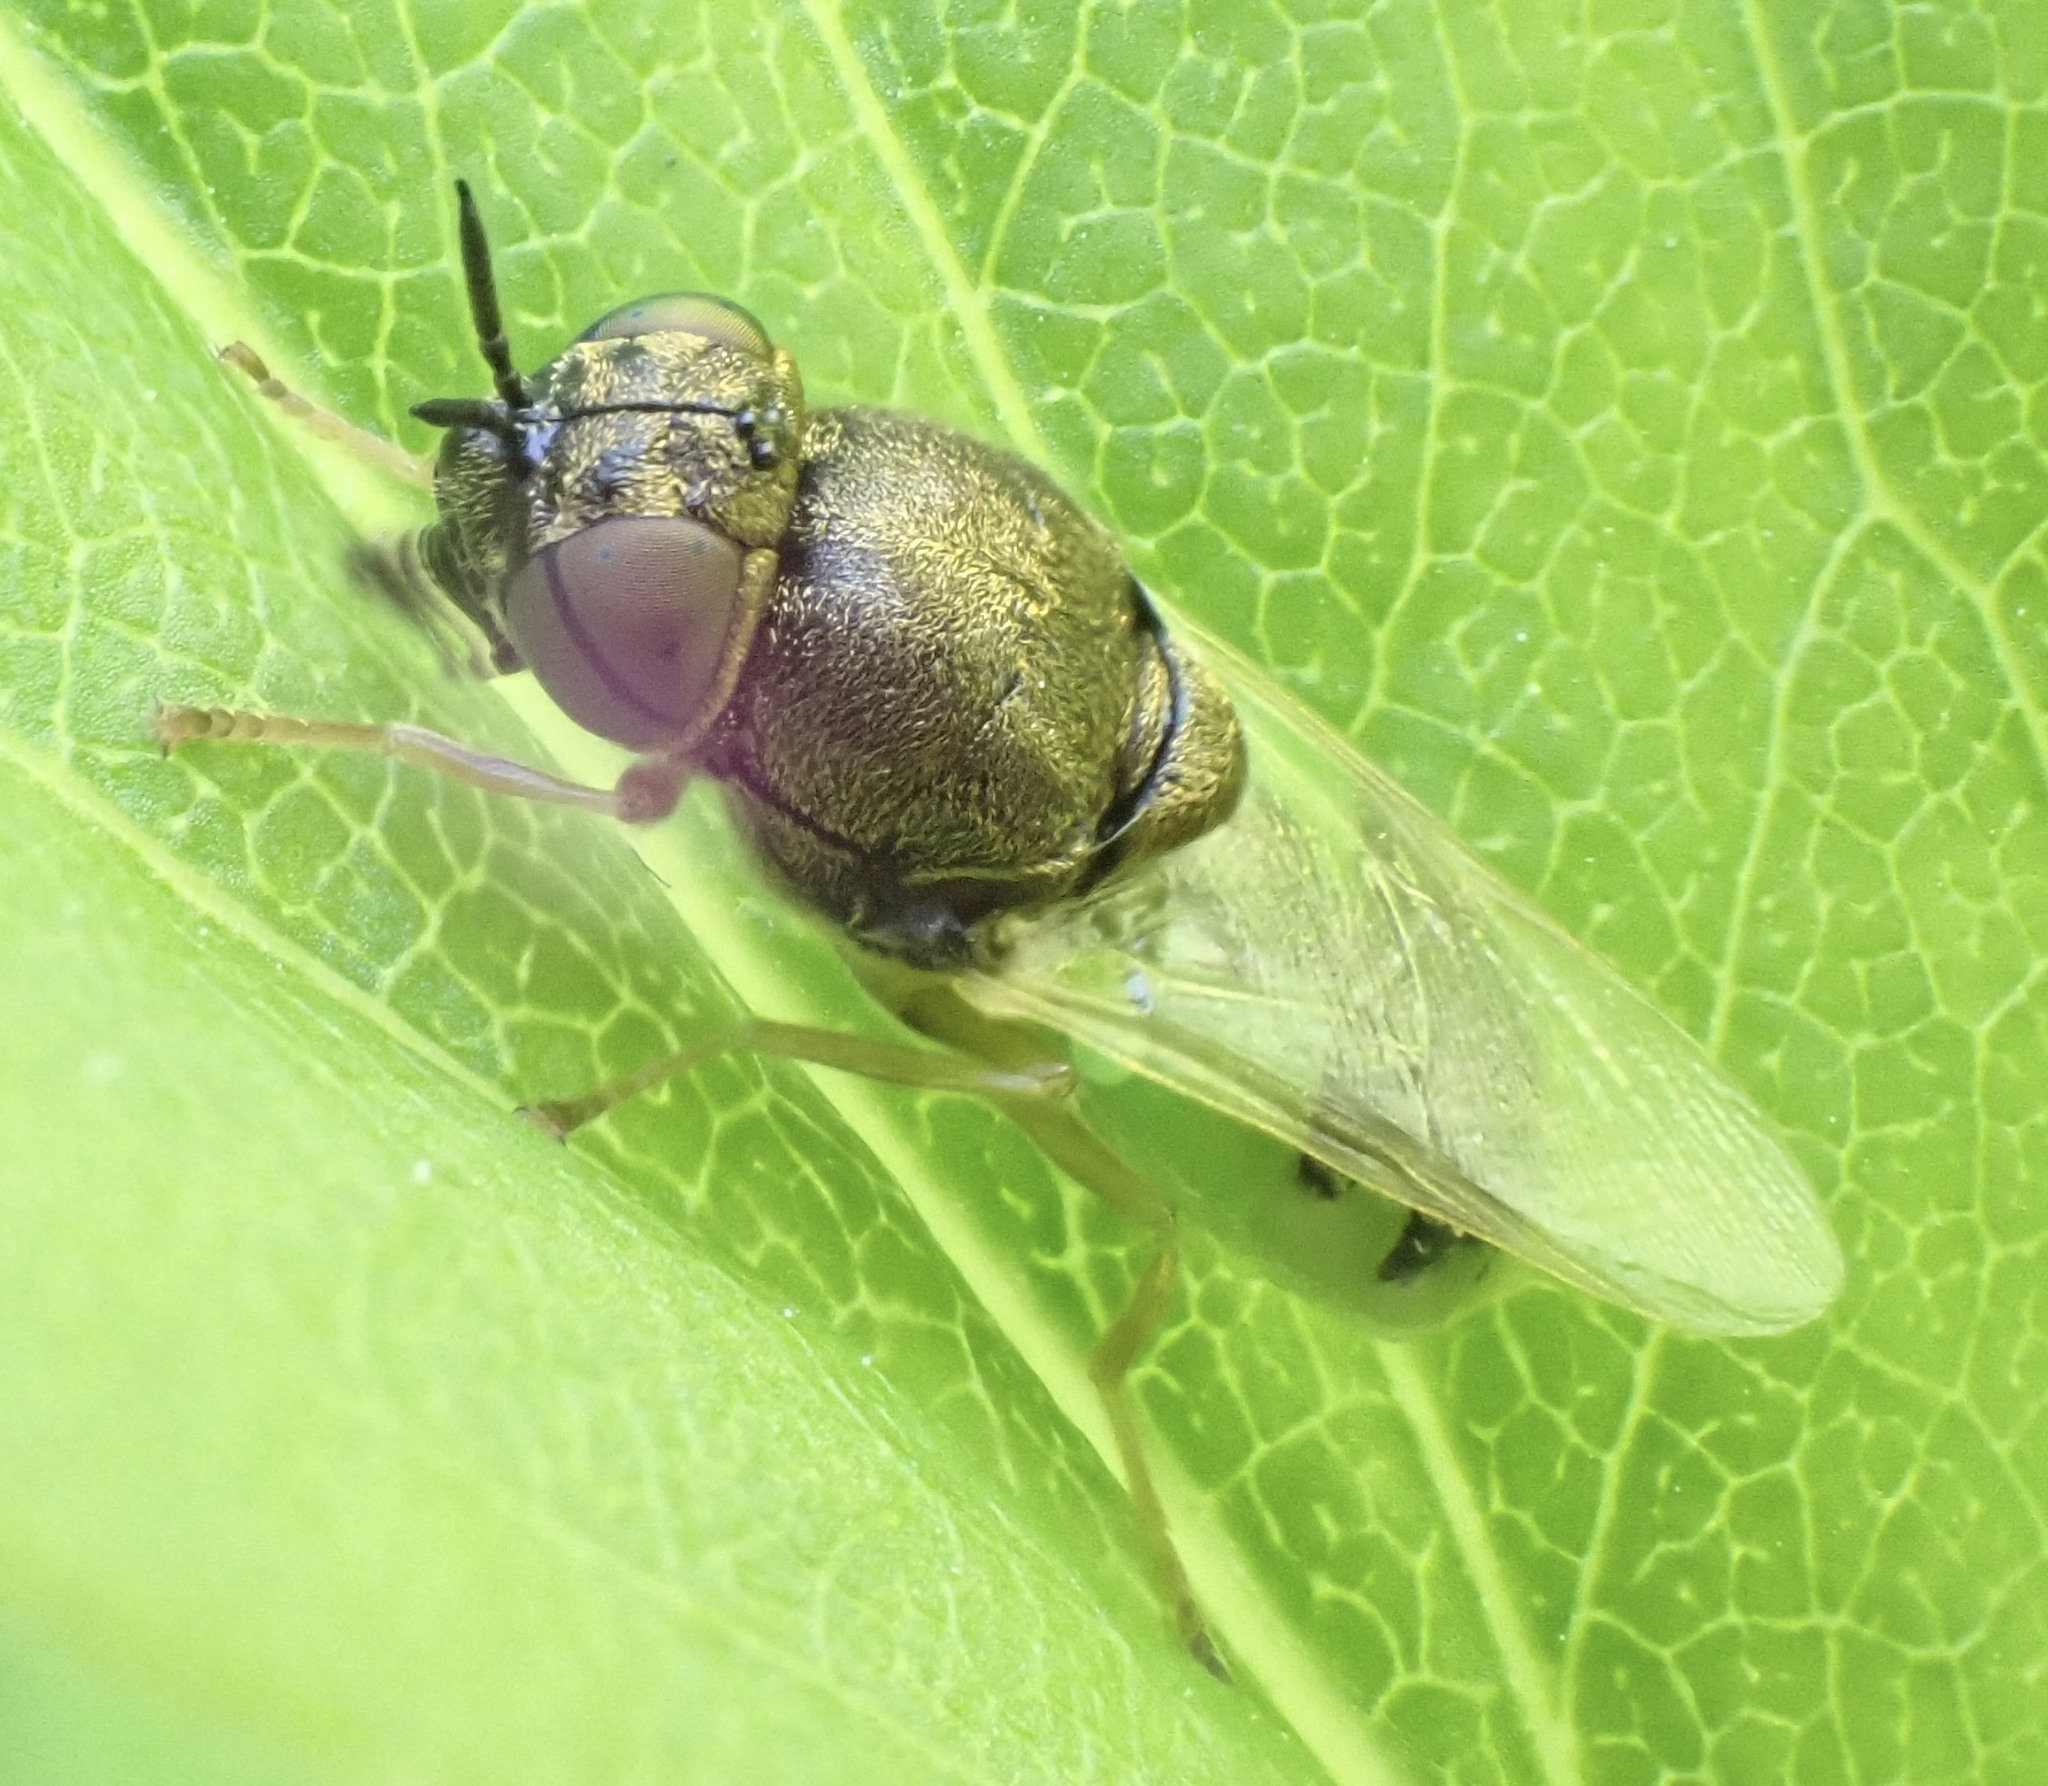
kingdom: Animalia
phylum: Arthropoda
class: Insecta
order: Diptera
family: Stratiomyidae
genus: Oplodontha
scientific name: Oplodontha viridula
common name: Common green colonel
